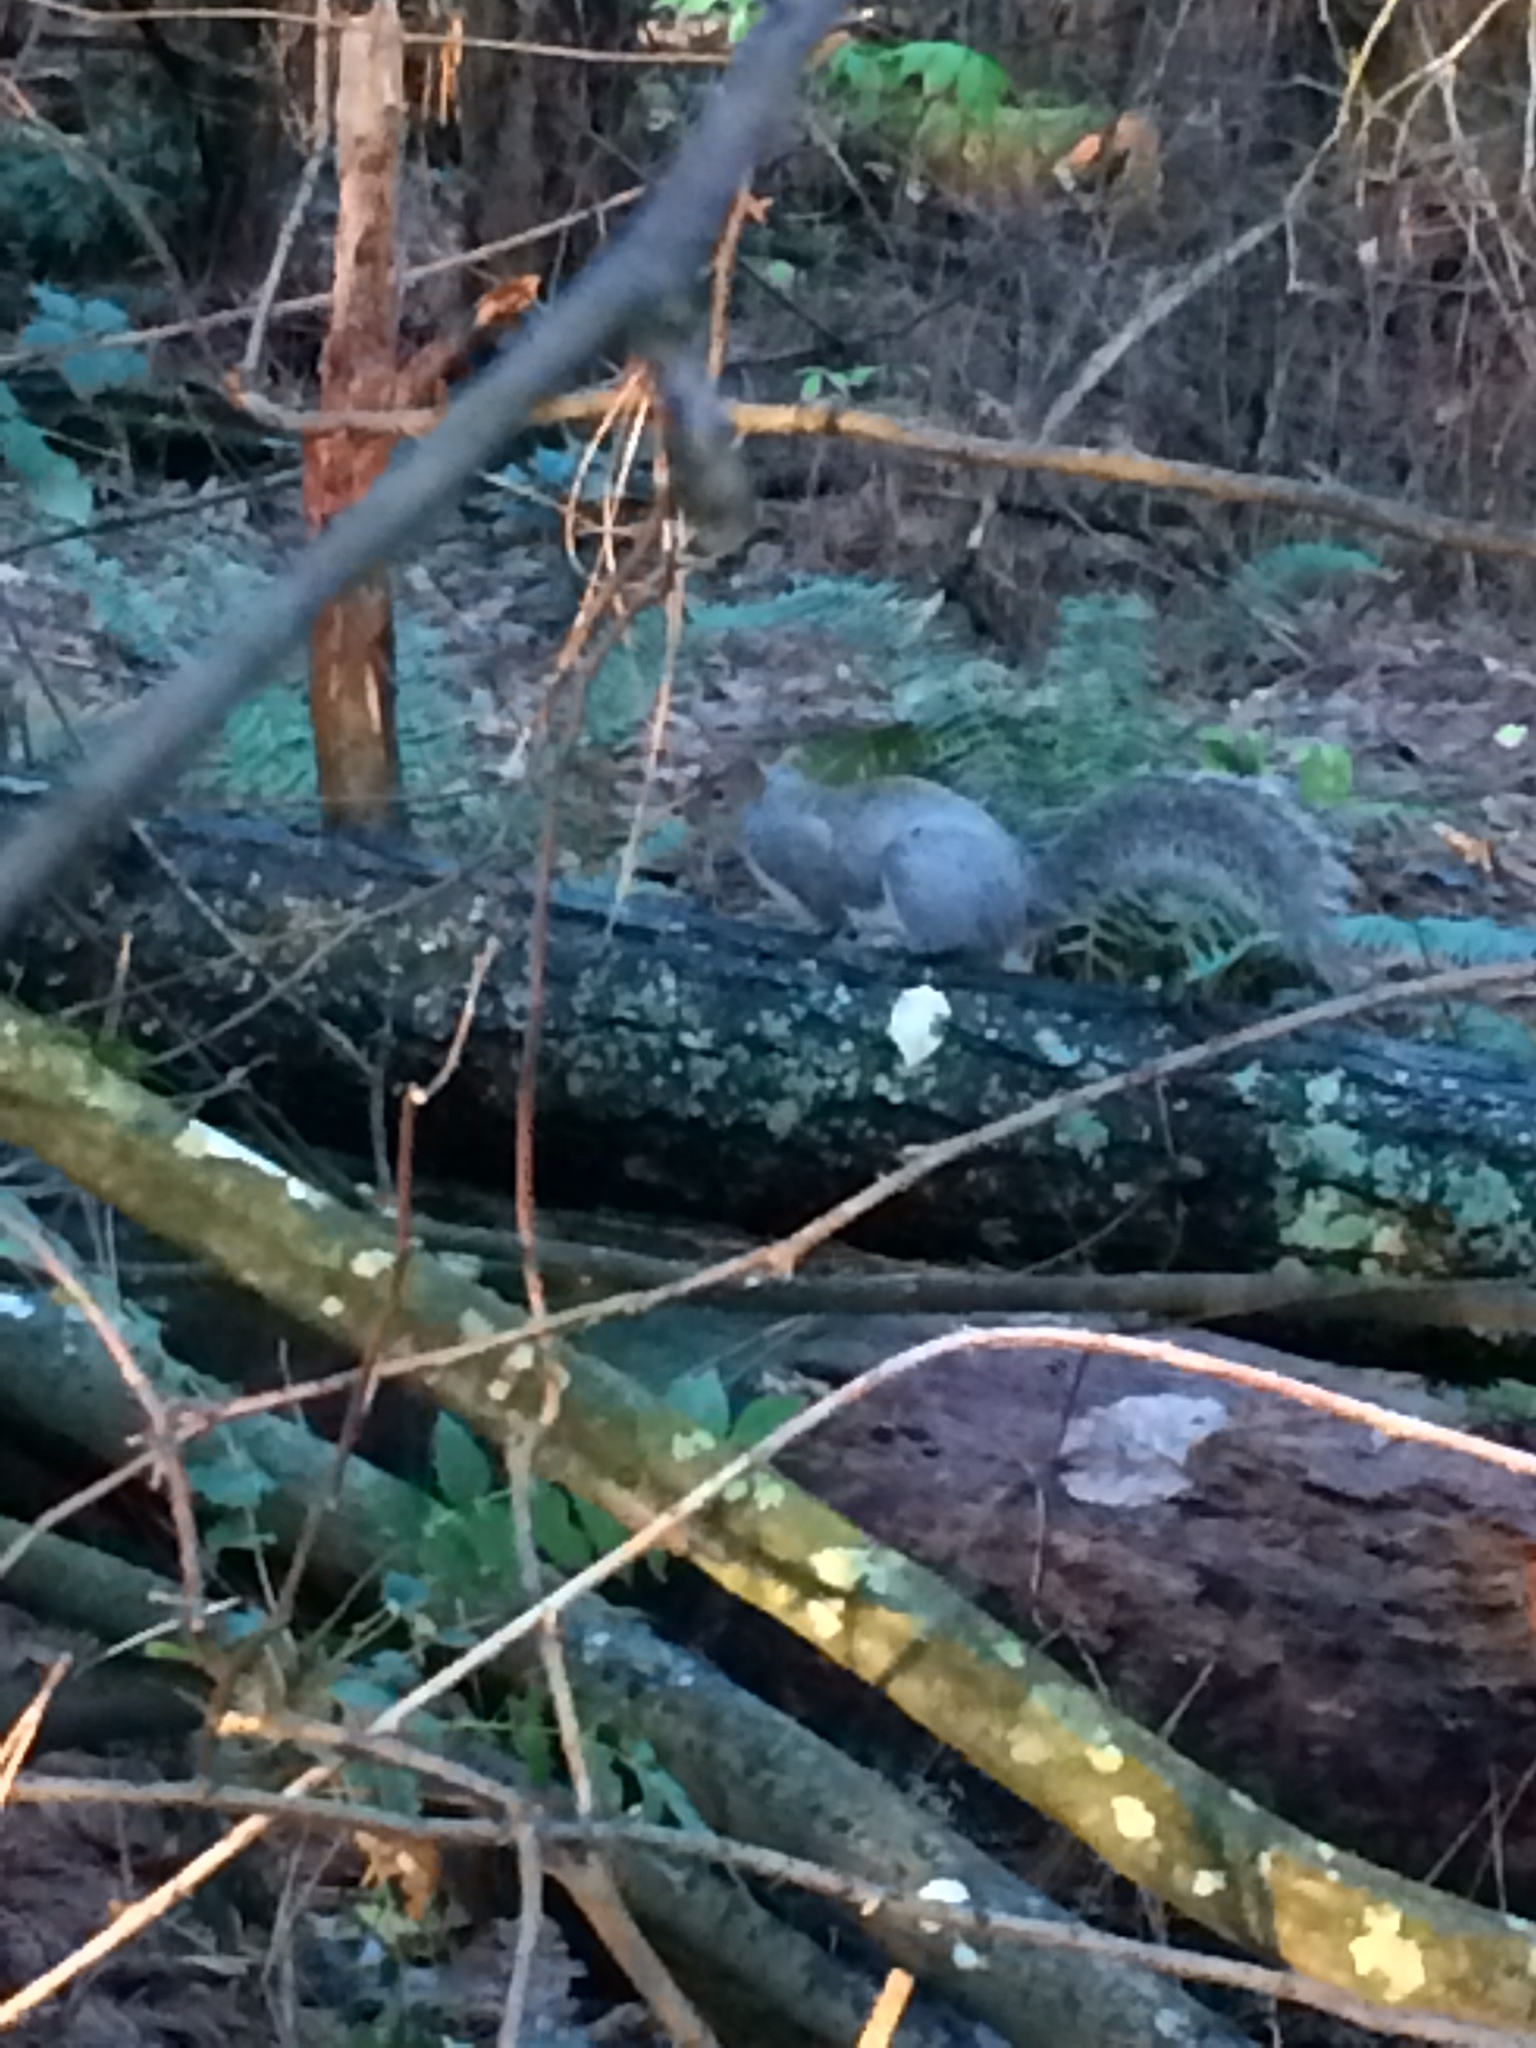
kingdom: Animalia
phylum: Chordata
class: Mammalia
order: Rodentia
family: Sciuridae
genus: Sciurus
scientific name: Sciurus carolinensis
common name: Eastern gray squirrel
